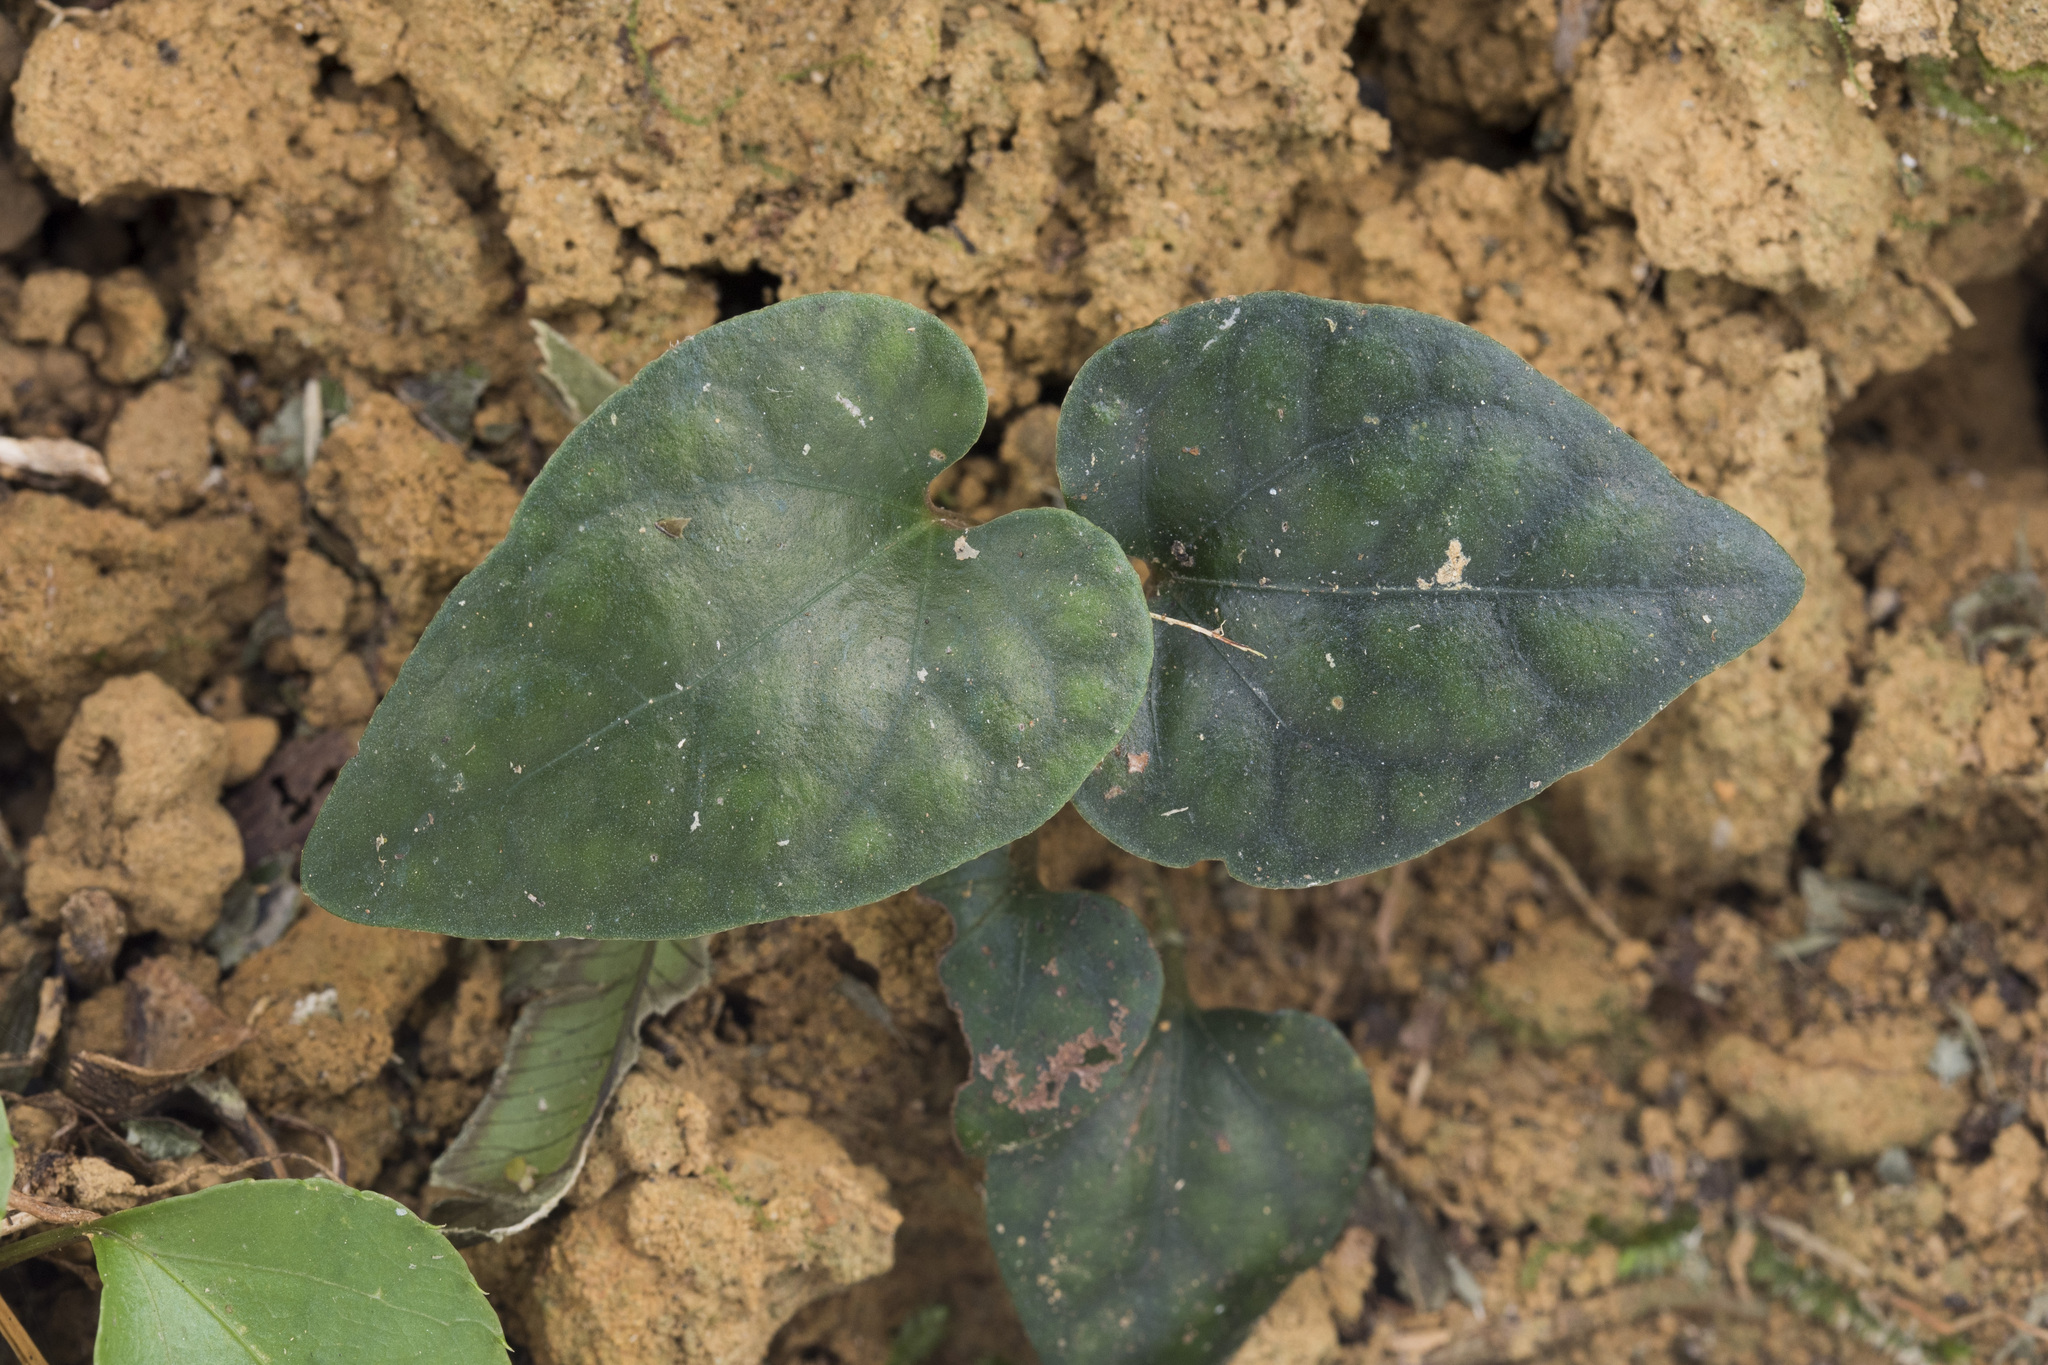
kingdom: Plantae
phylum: Tracheophyta
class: Magnoliopsida
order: Piperales
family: Piperaceae
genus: Piper
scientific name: Piper taiwanense
